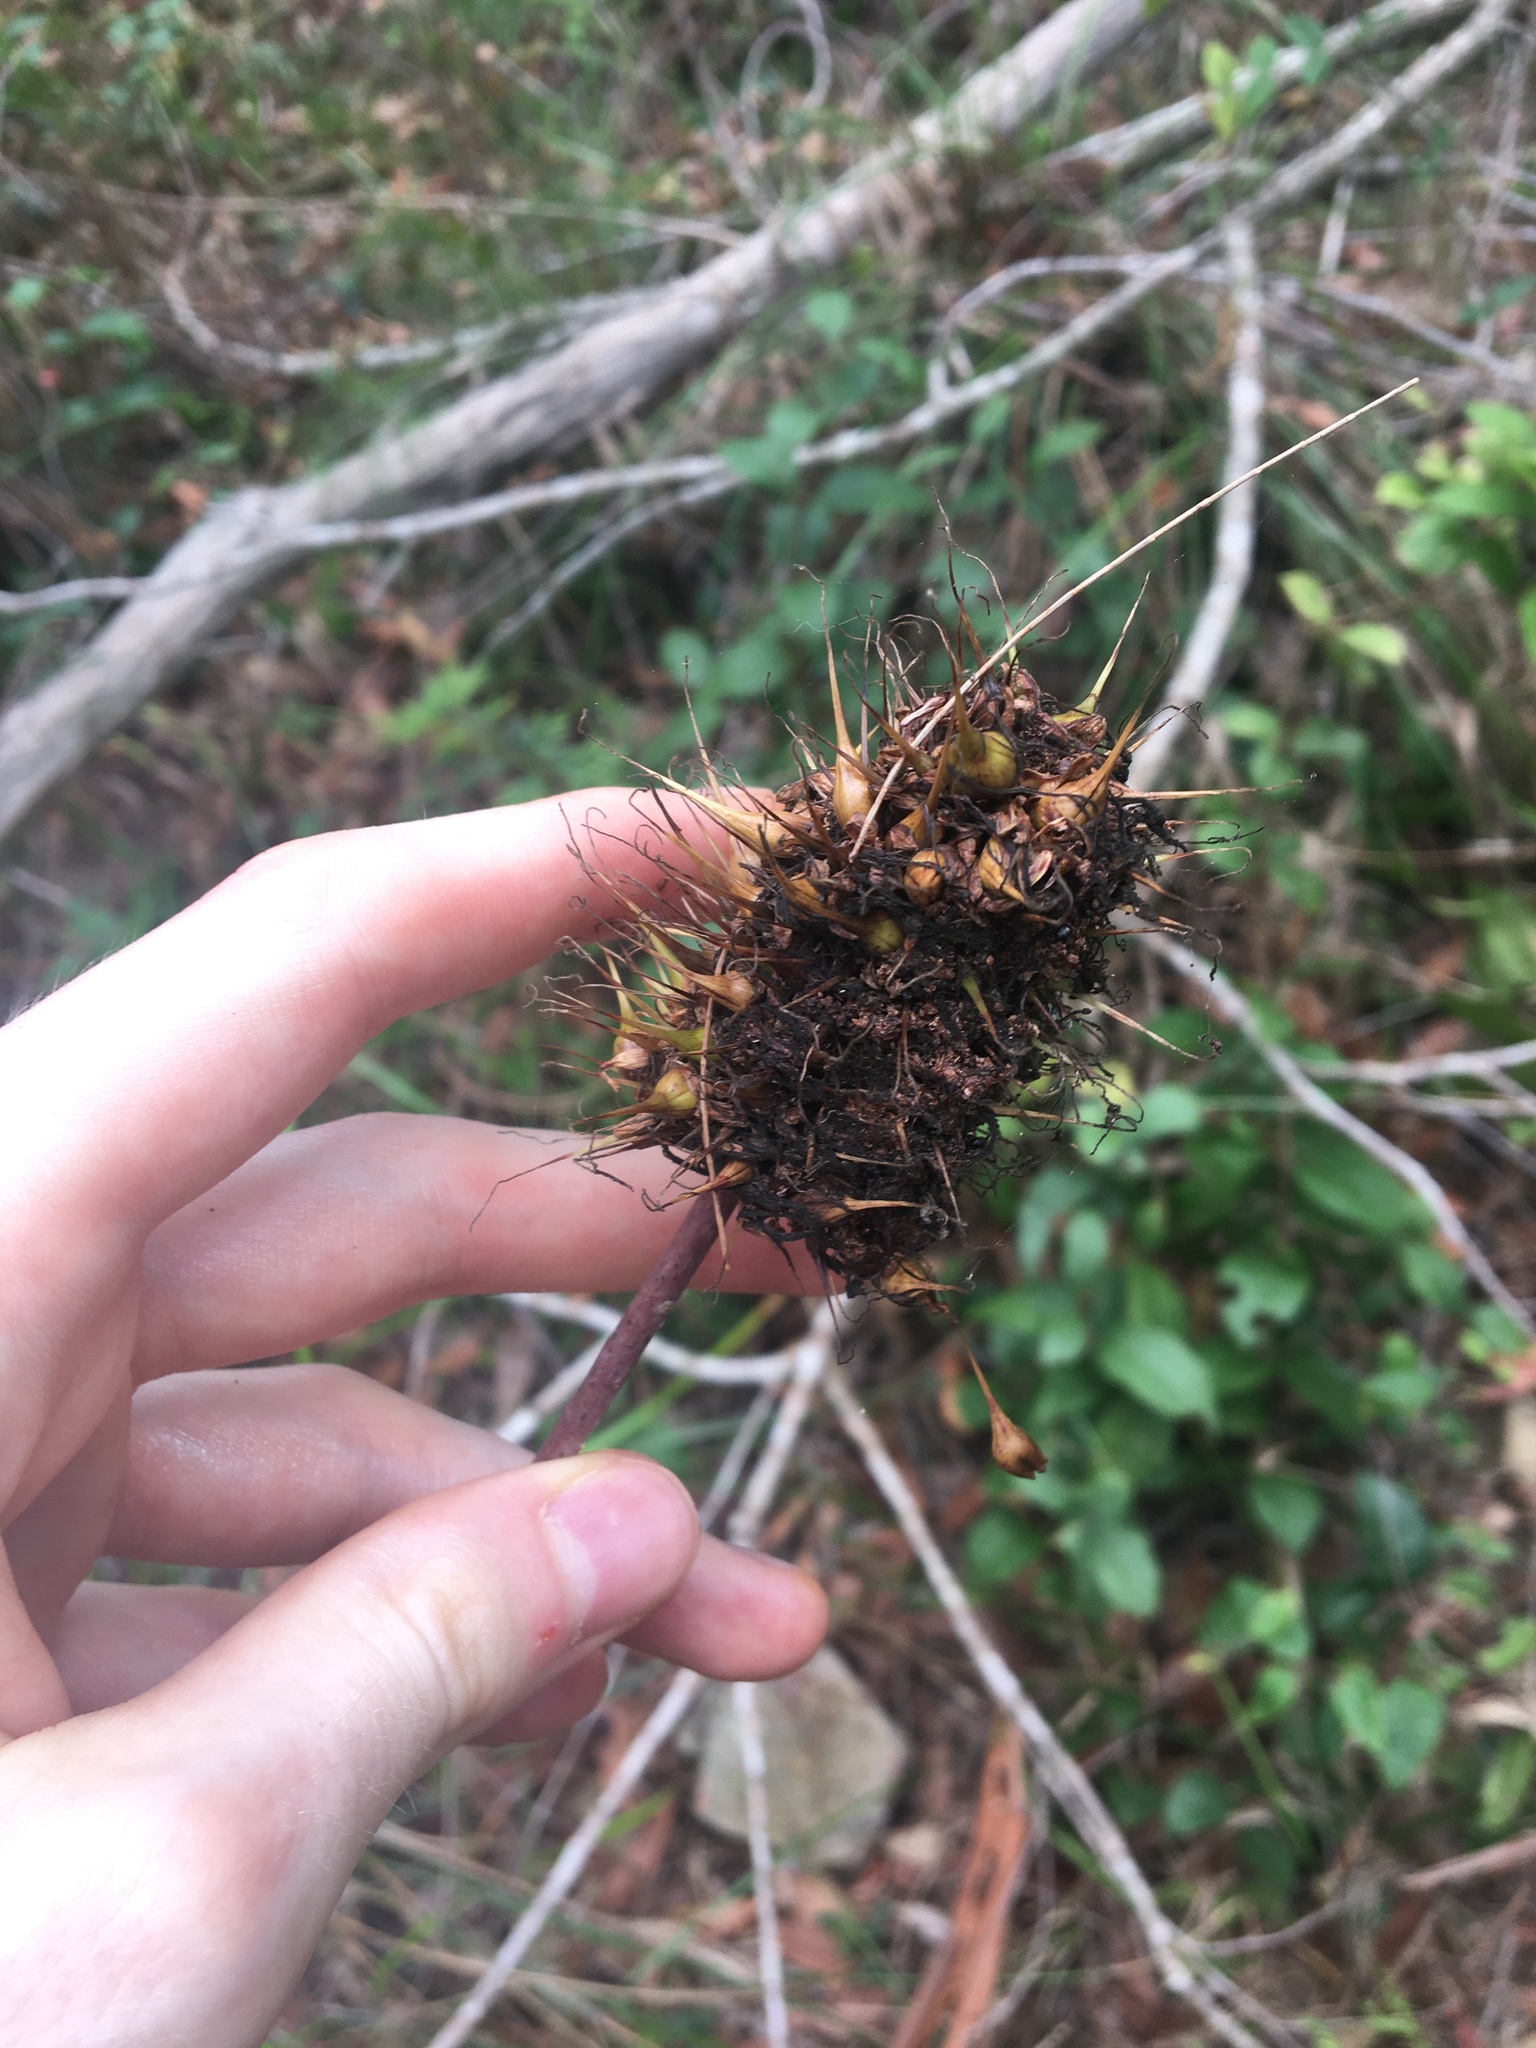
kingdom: Plantae
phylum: Tracheophyta
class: Liliopsida
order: Asparagales
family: Asphodelaceae
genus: Xanthorrhoea
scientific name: Xanthorrhoea macronema
